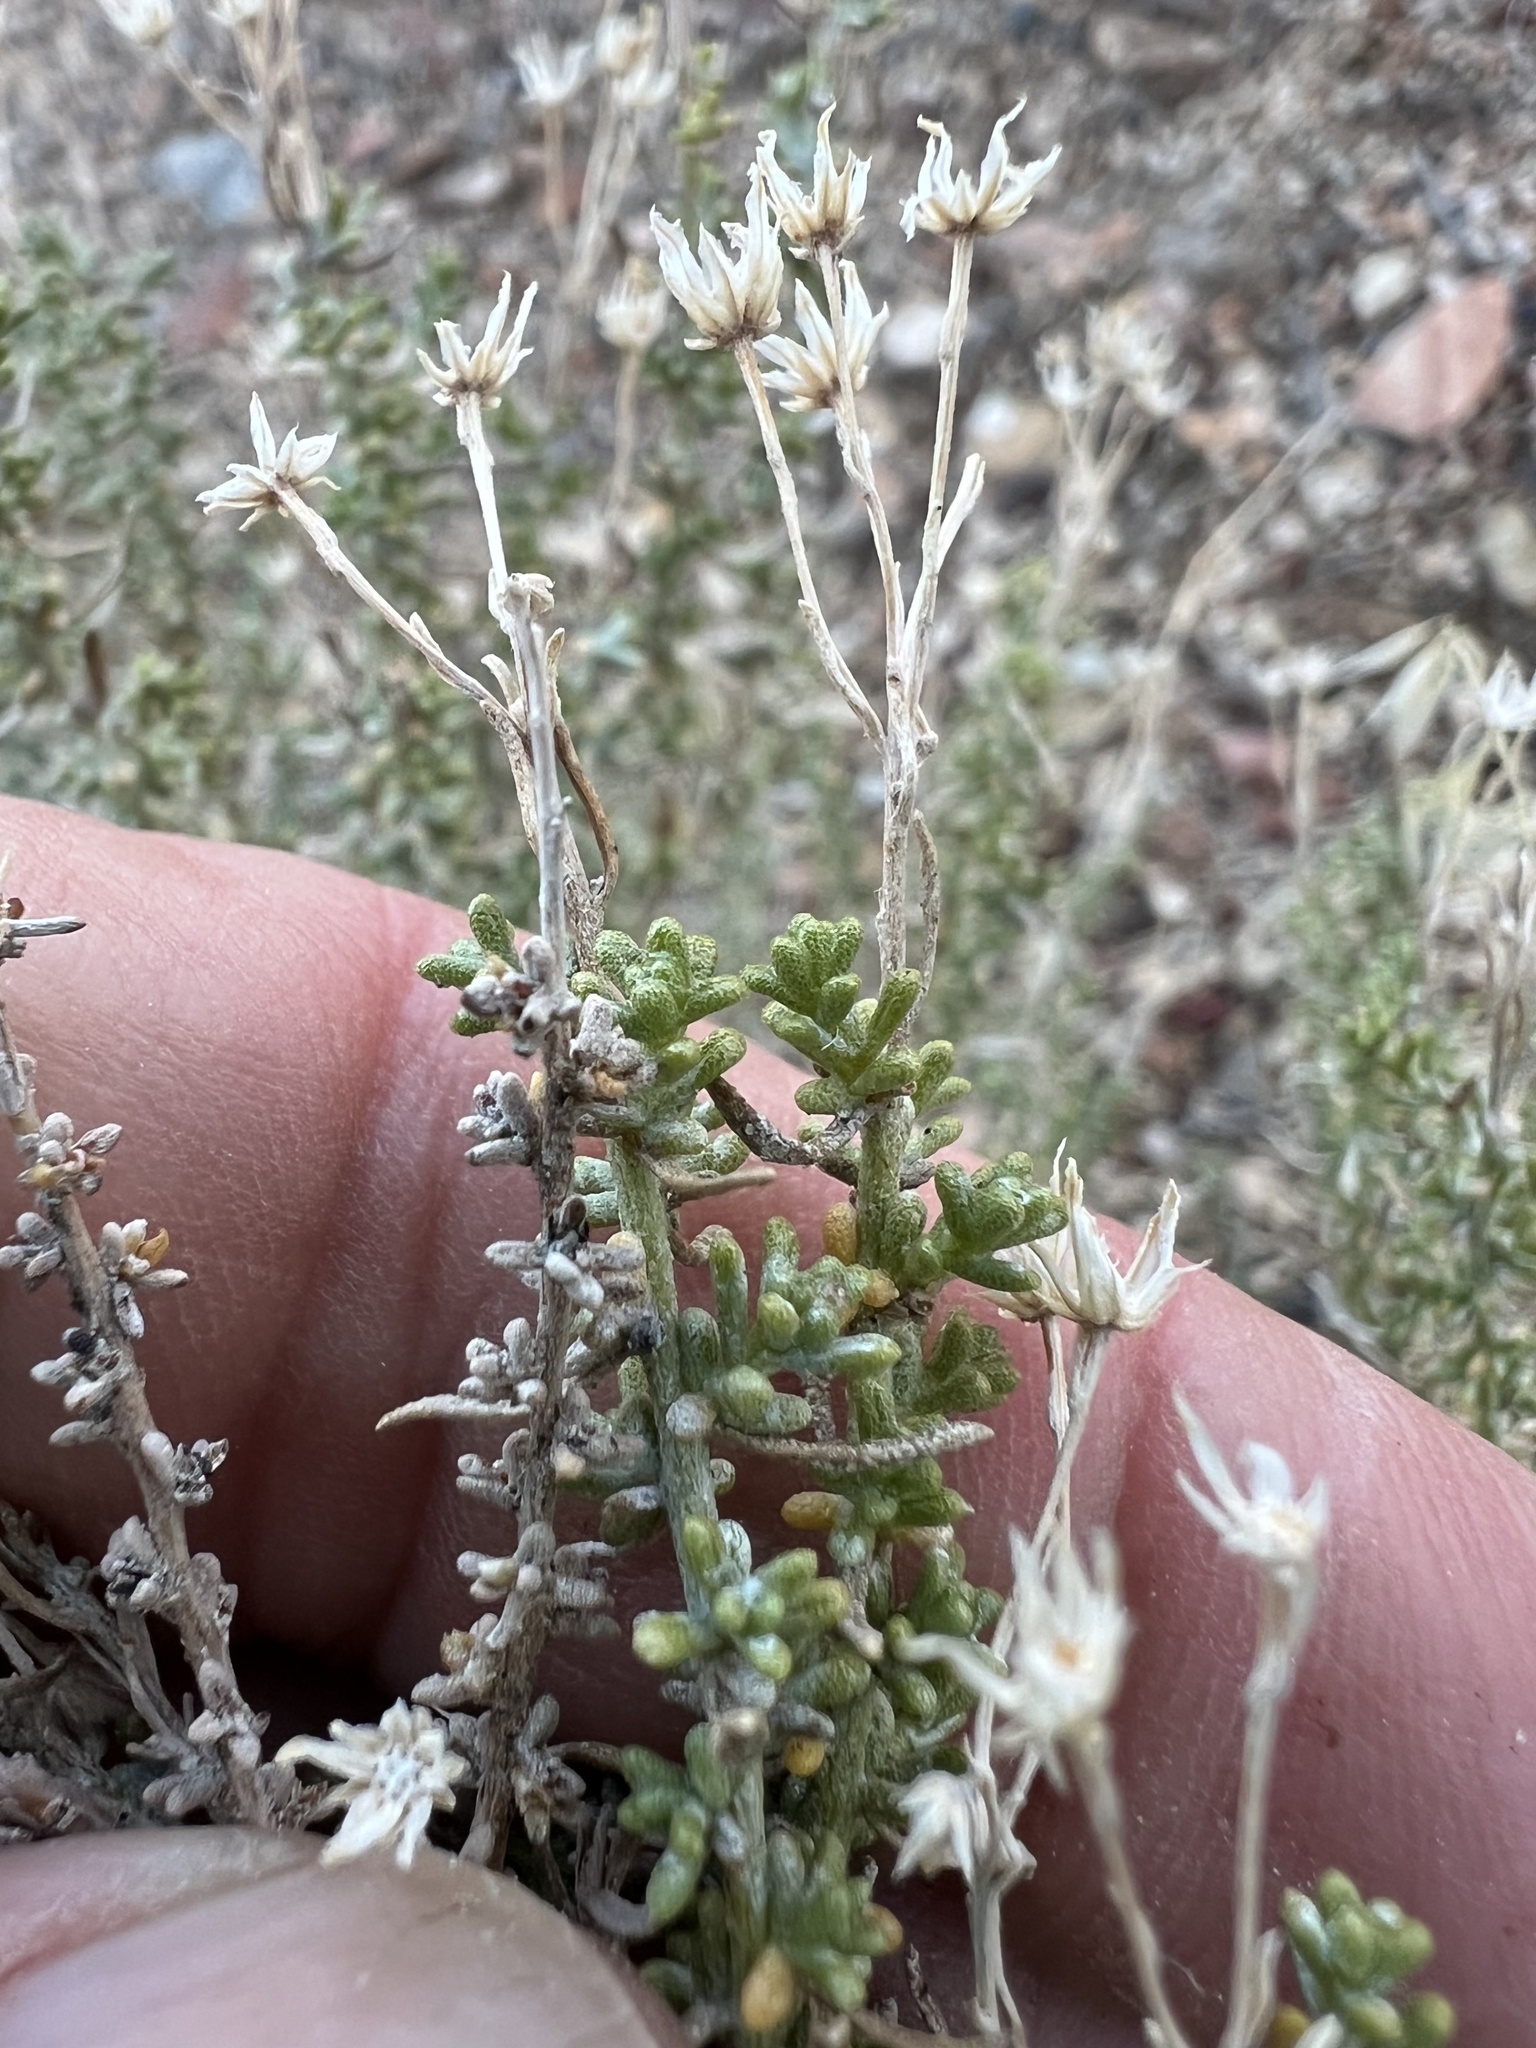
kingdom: Plantae
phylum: Tracheophyta
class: Magnoliopsida
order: Asterales
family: Asteraceae
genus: Ericameria
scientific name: Ericameria cooperi
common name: Cooper's goldenbush
